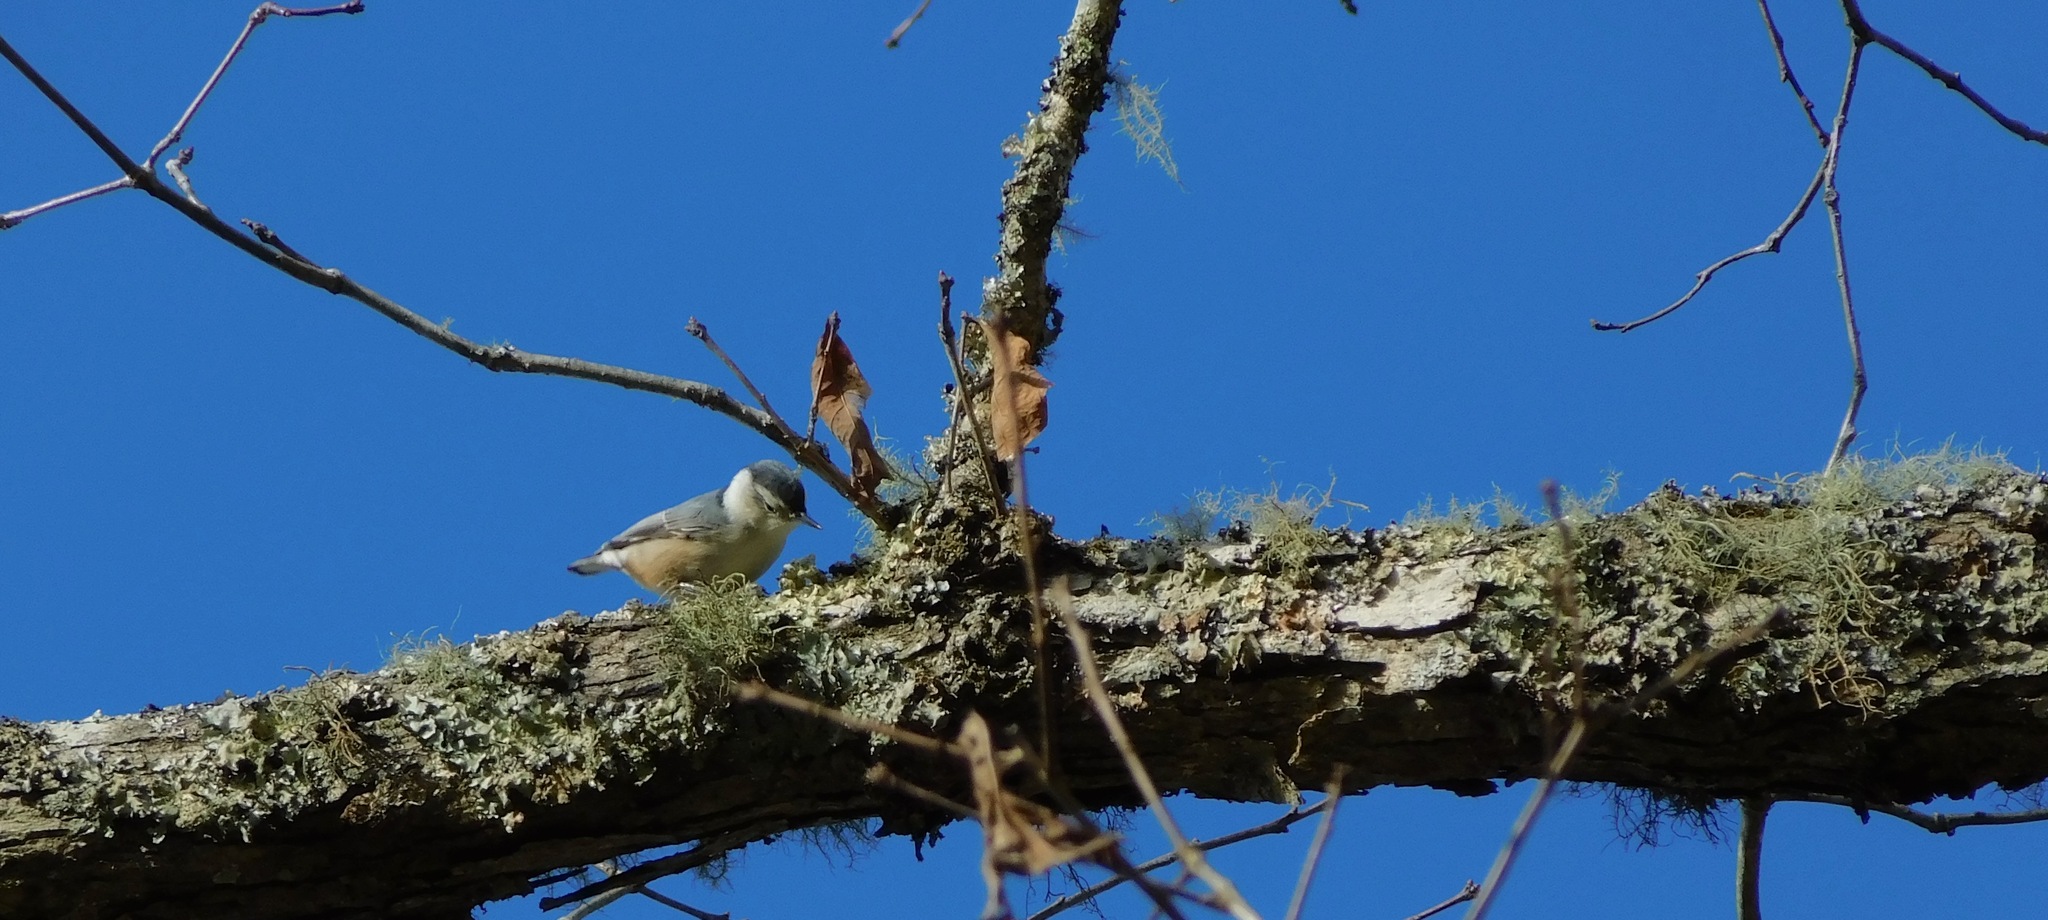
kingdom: Animalia
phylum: Chordata
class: Aves
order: Passeriformes
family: Sittidae
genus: Sitta
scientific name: Sitta carolinensis
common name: White-breasted nuthatch
